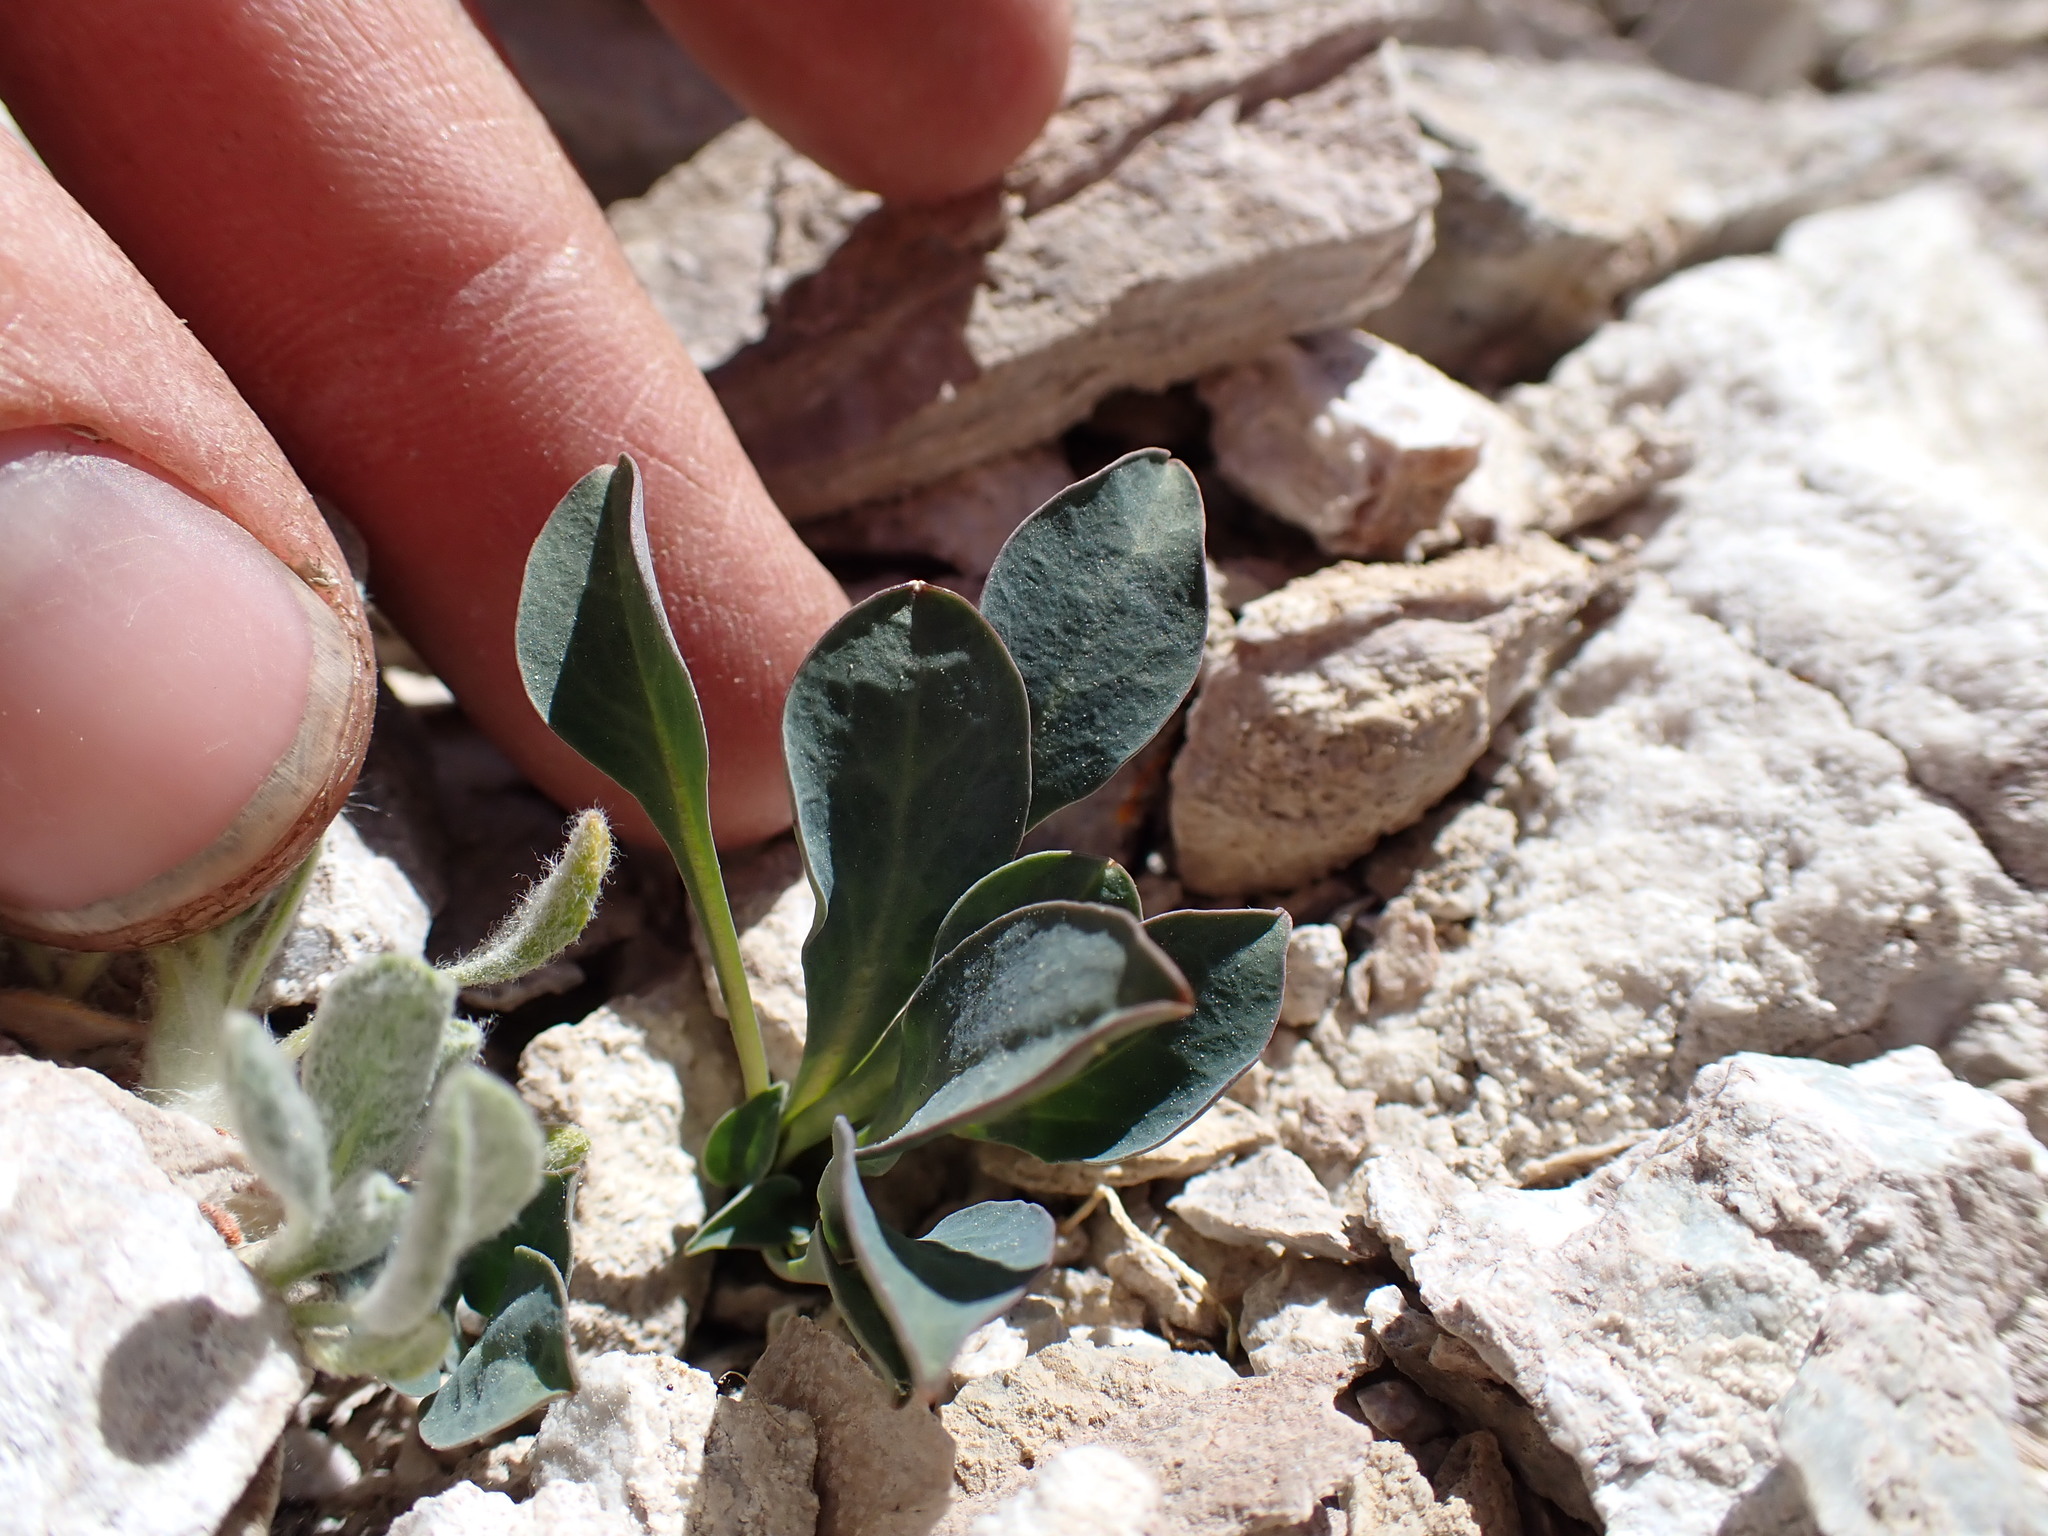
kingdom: Plantae
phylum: Tracheophyta
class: Magnoliopsida
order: Asterales
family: Asteraceae
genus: Askellia
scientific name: Askellia pygmaea
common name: Dwarf alpine hawksbeard
